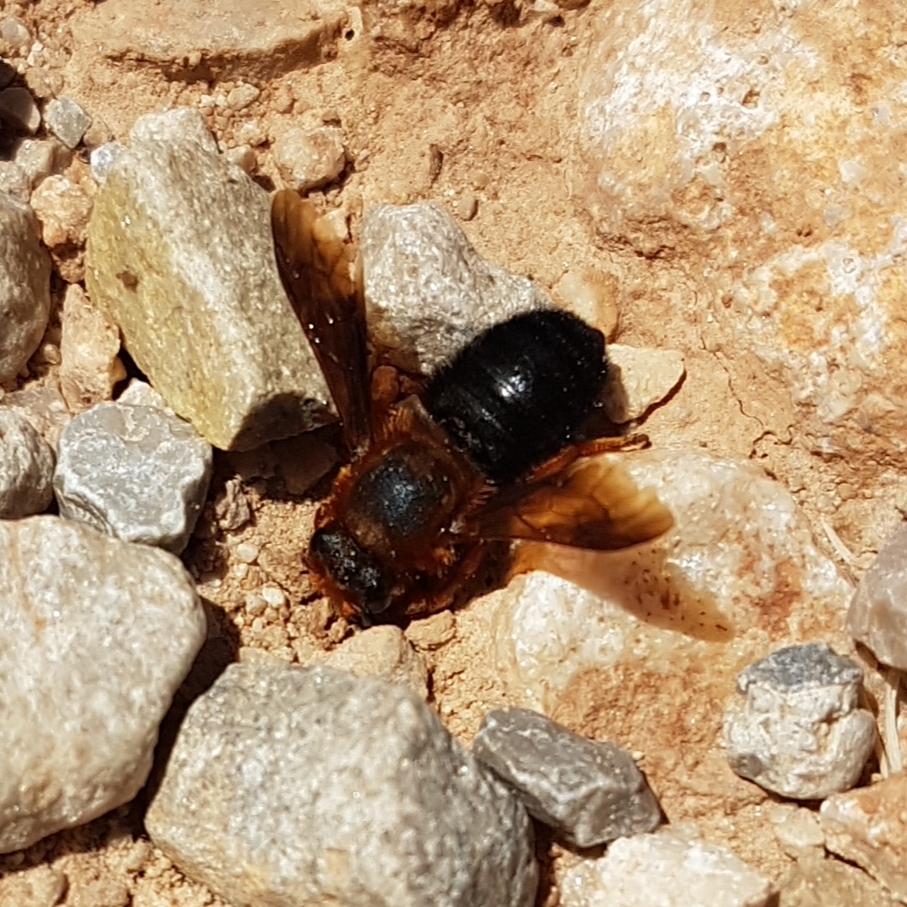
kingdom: Animalia
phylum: Arthropoda
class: Insecta
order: Hymenoptera
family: Megachilidae
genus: Megachile
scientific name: Megachile sicula
